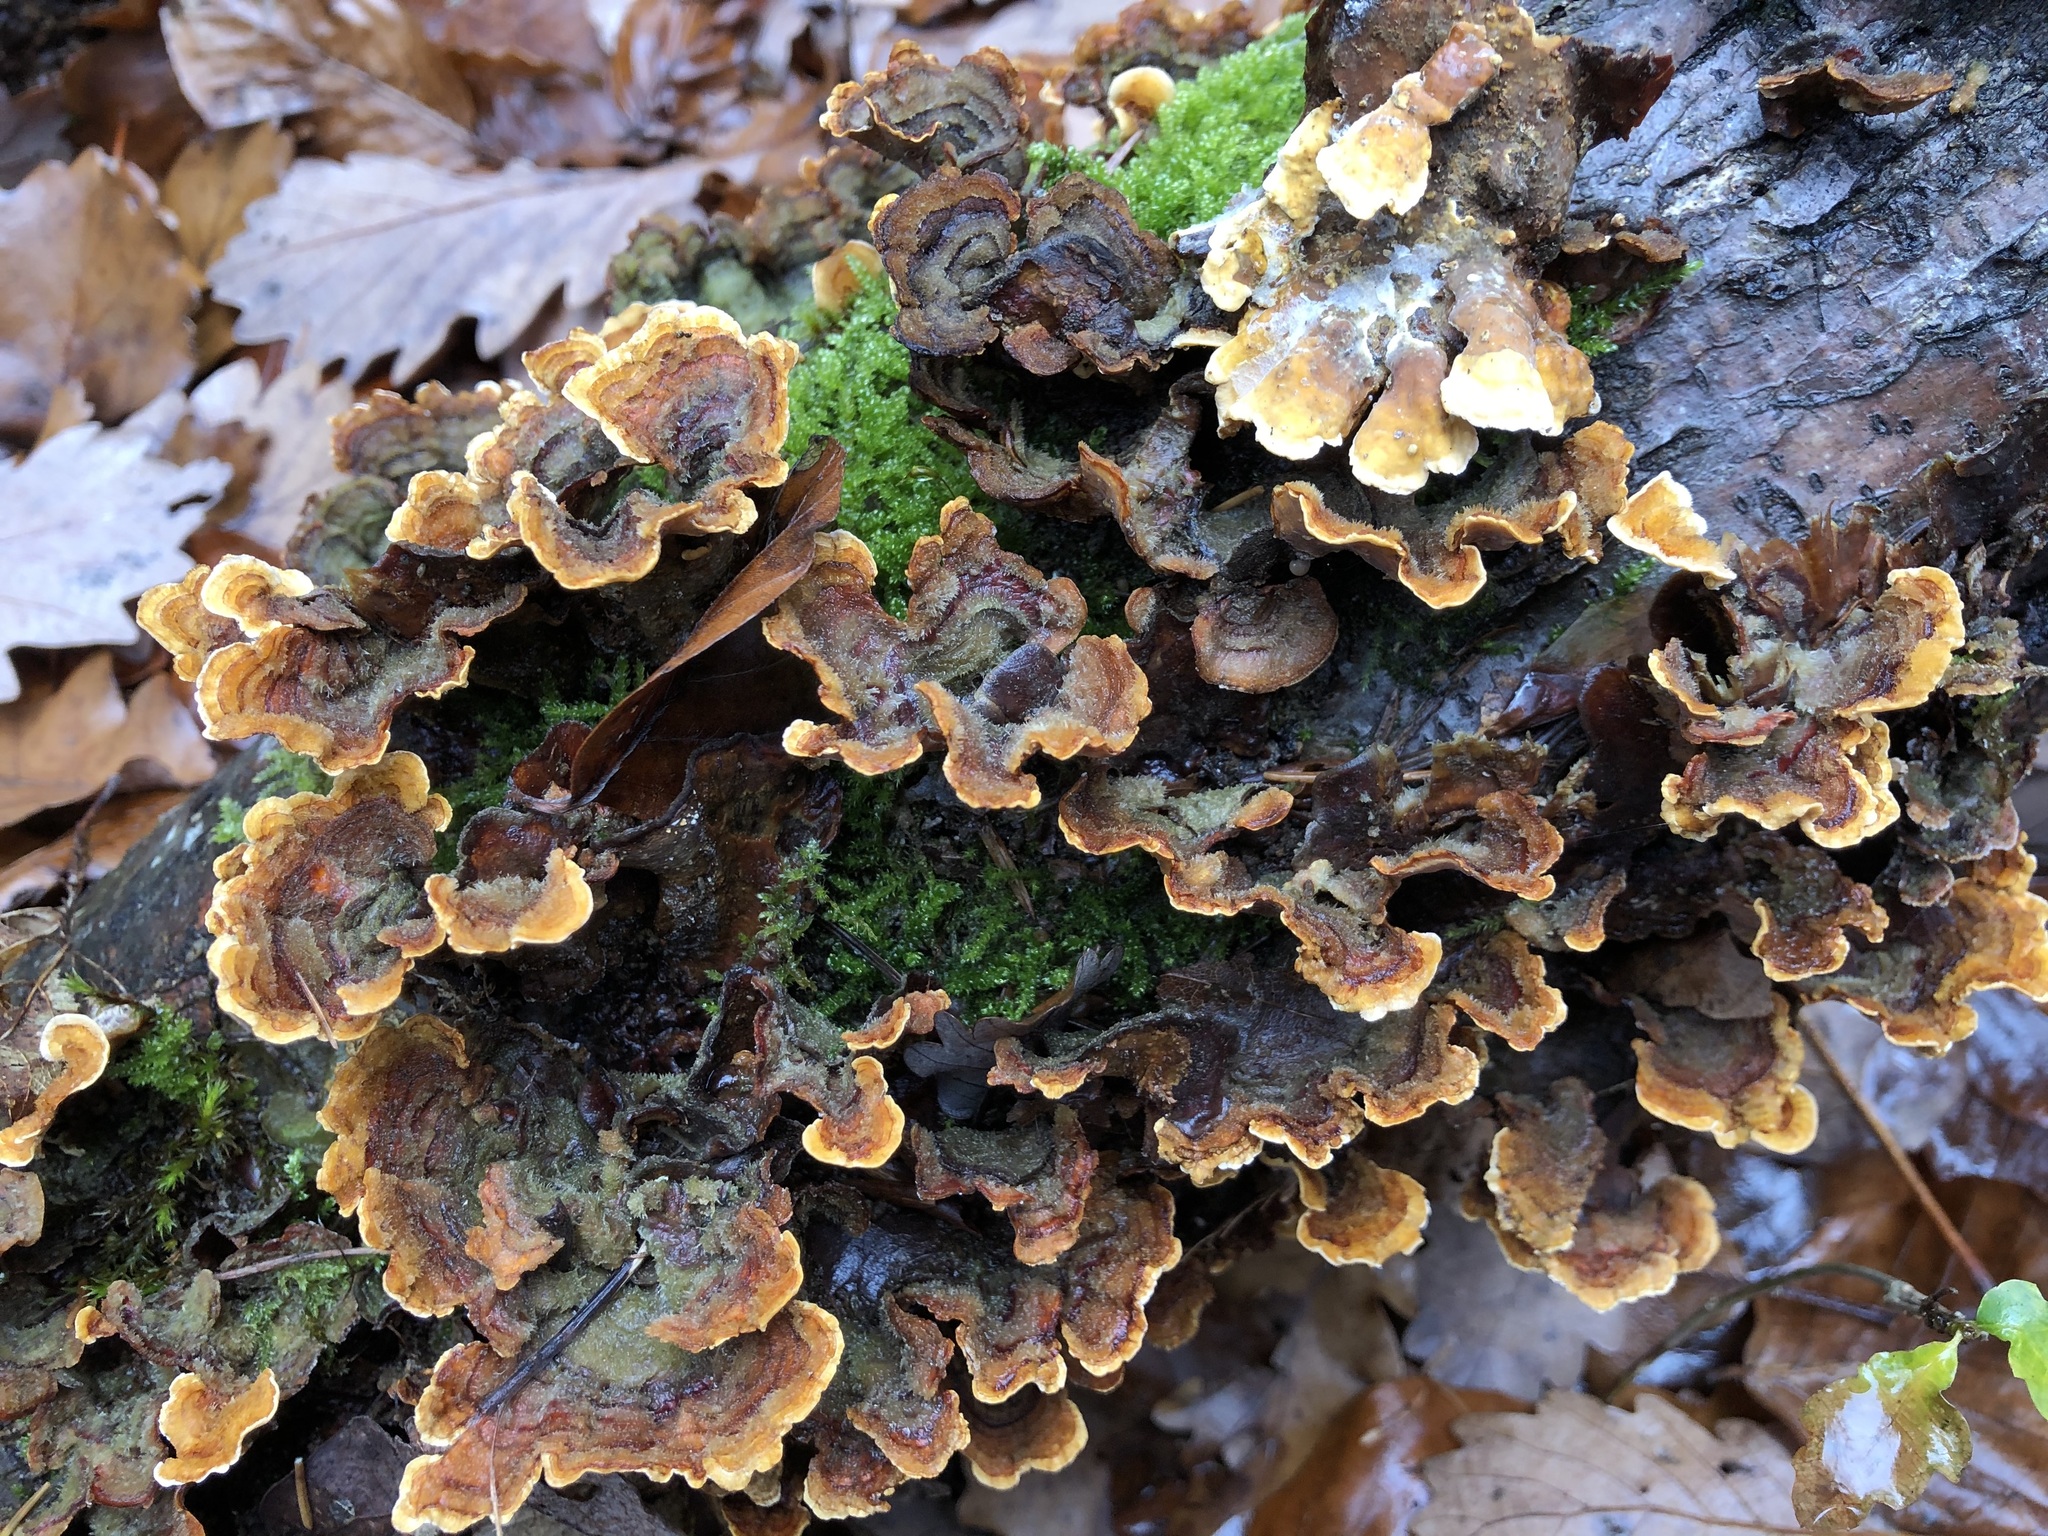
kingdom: Fungi
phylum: Basidiomycota
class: Agaricomycetes
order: Russulales
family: Stereaceae
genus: Stereum
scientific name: Stereum hirsutum
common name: Hairy curtain crust
